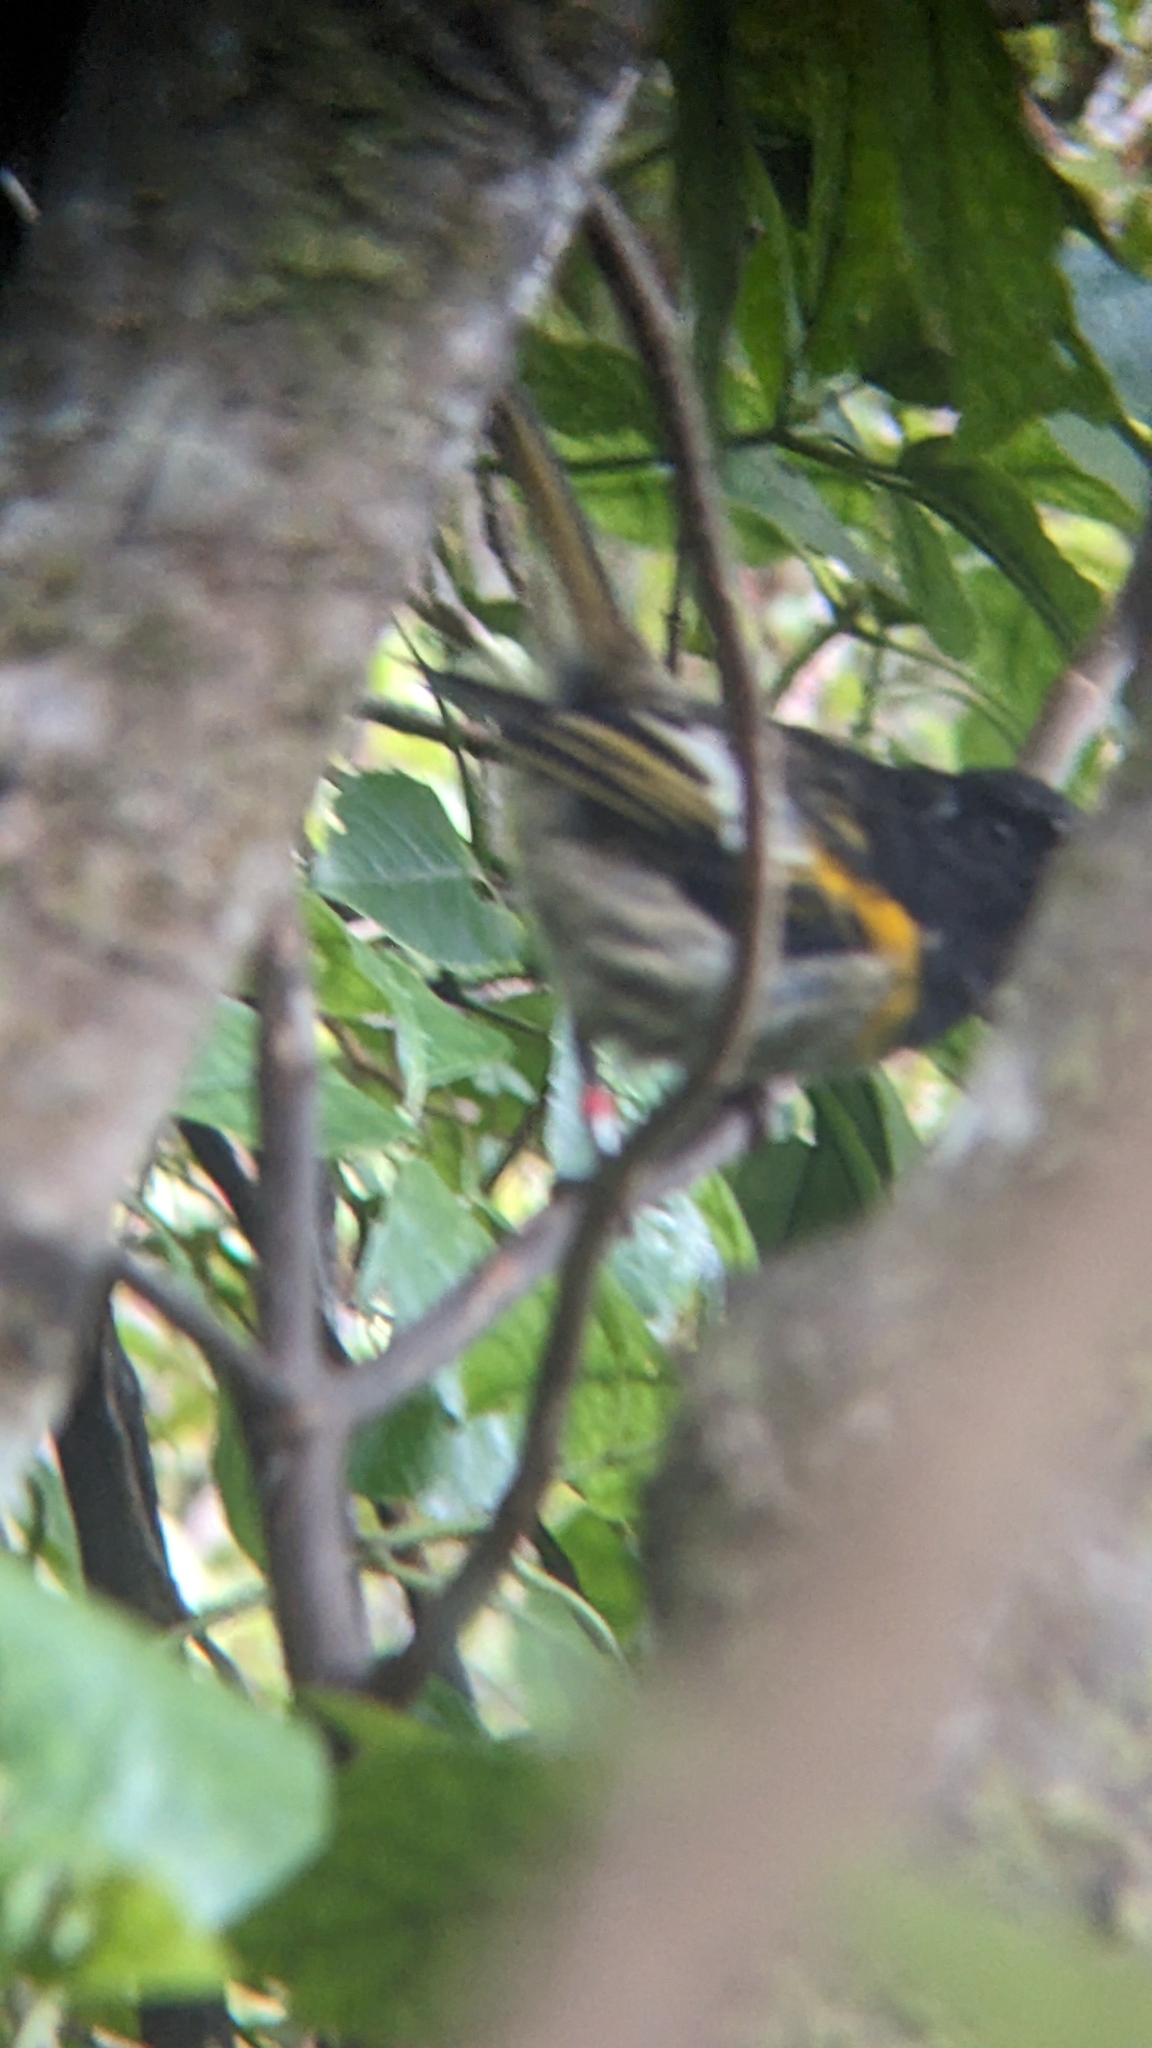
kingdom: Animalia
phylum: Chordata
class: Aves
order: Passeriformes
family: Notiomystidae
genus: Notiomystis
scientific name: Notiomystis cincta
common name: Stitchbird
